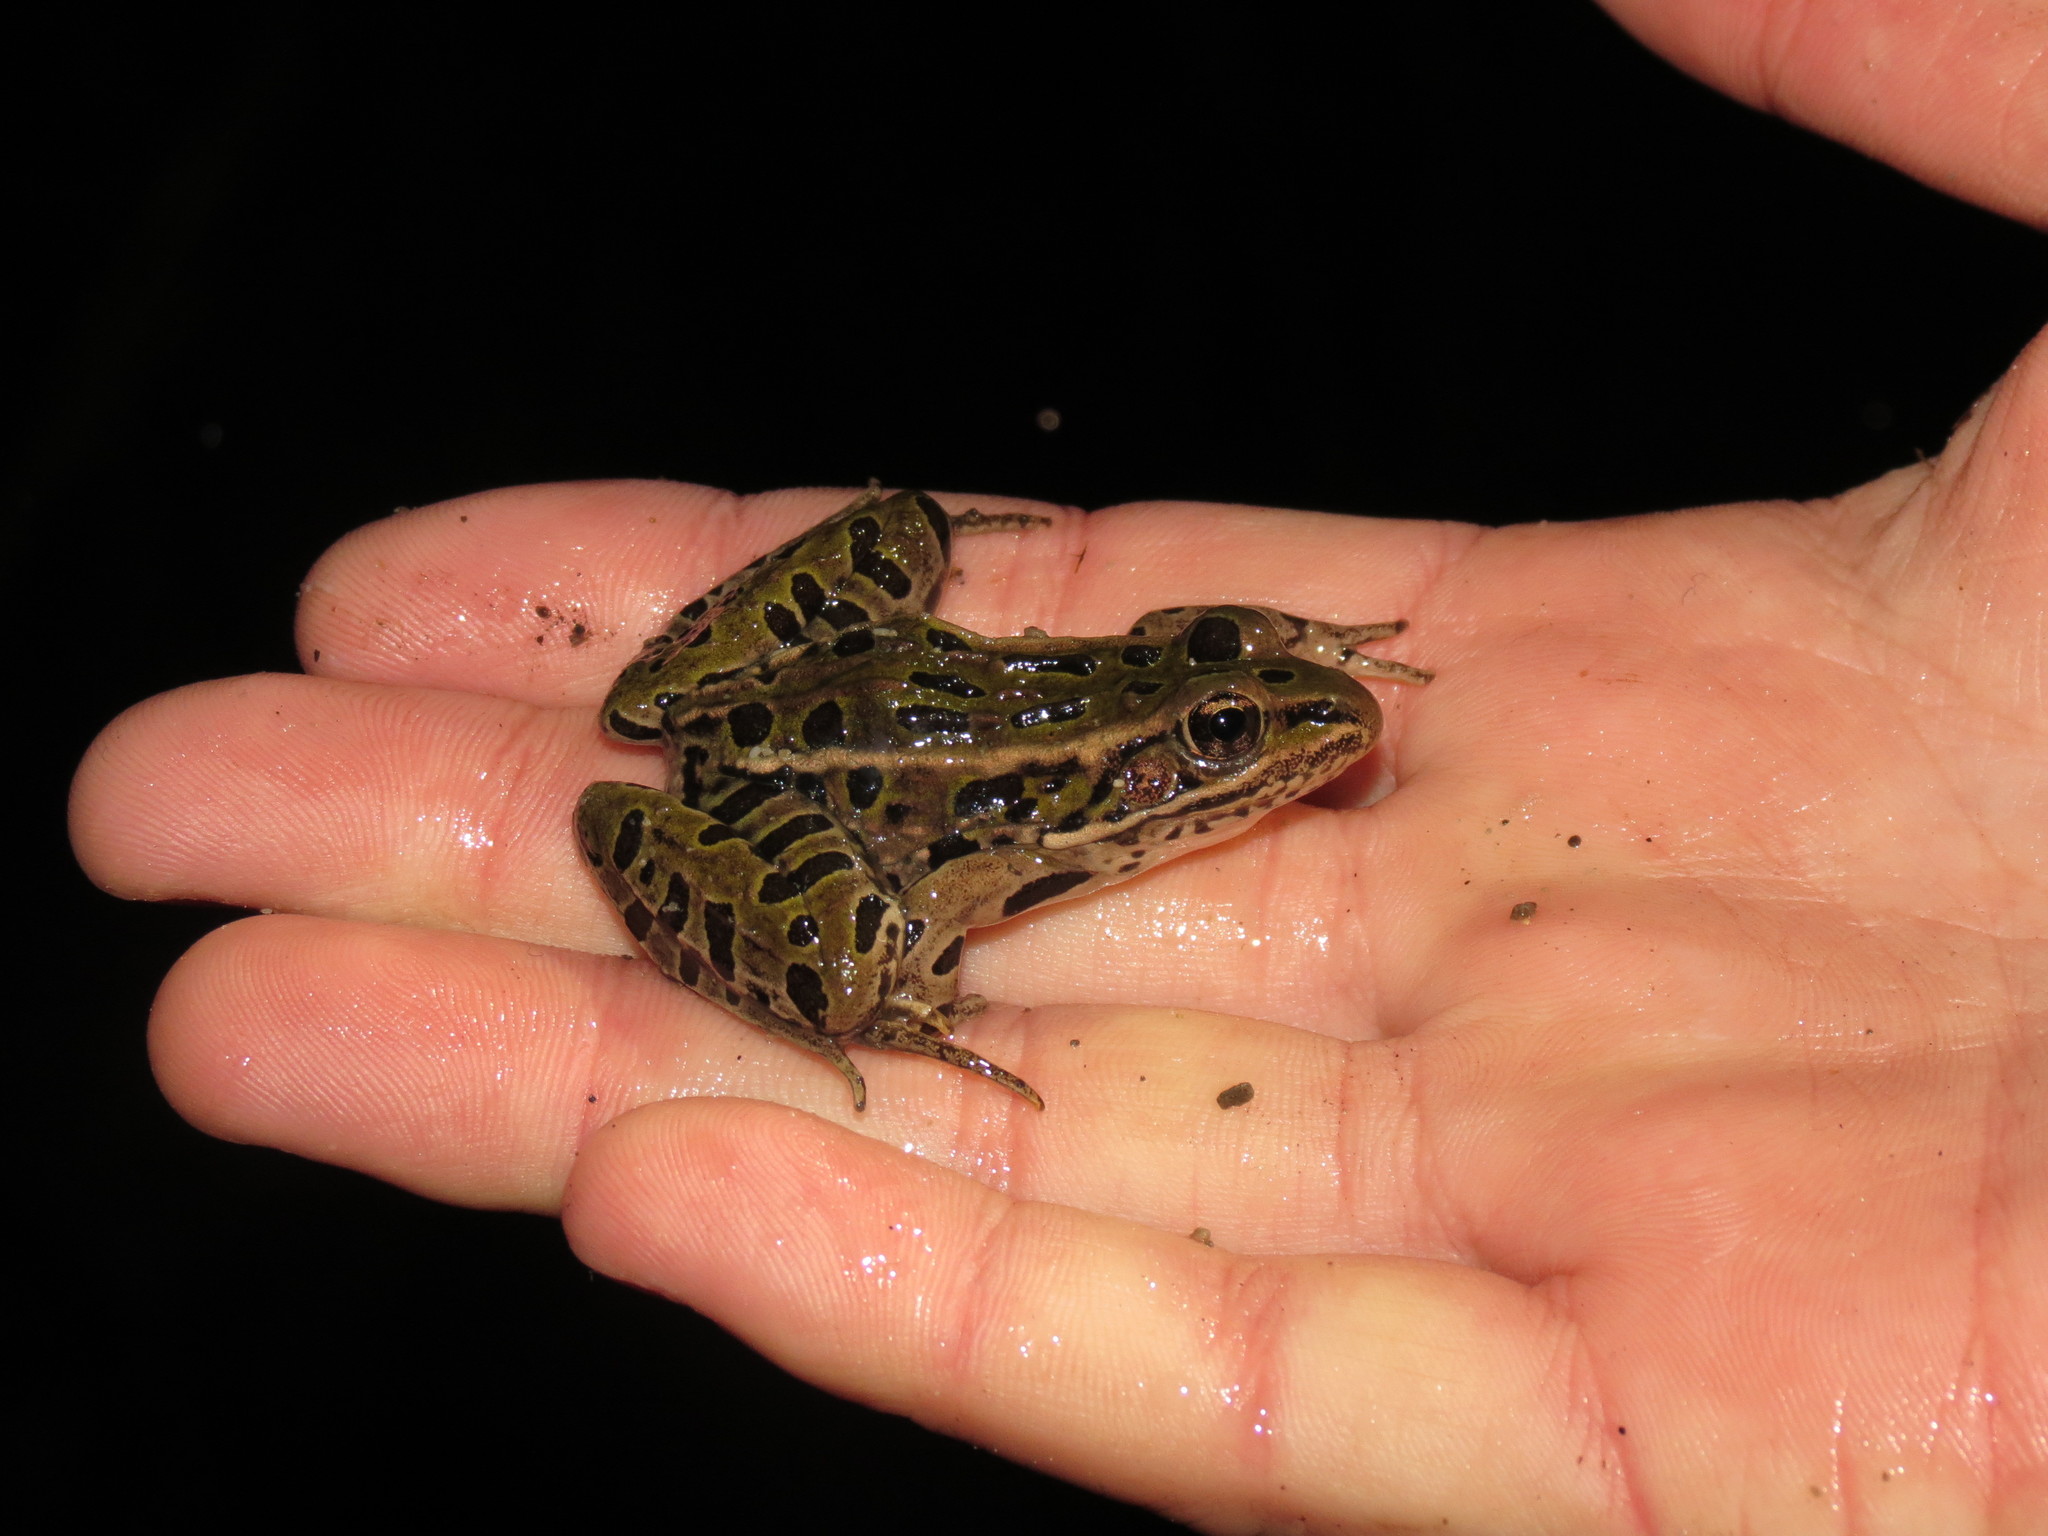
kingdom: Animalia
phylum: Chordata
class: Amphibia
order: Anura
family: Ranidae
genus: Lithobates
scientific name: Lithobates pipiens
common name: Northern leopard frog
